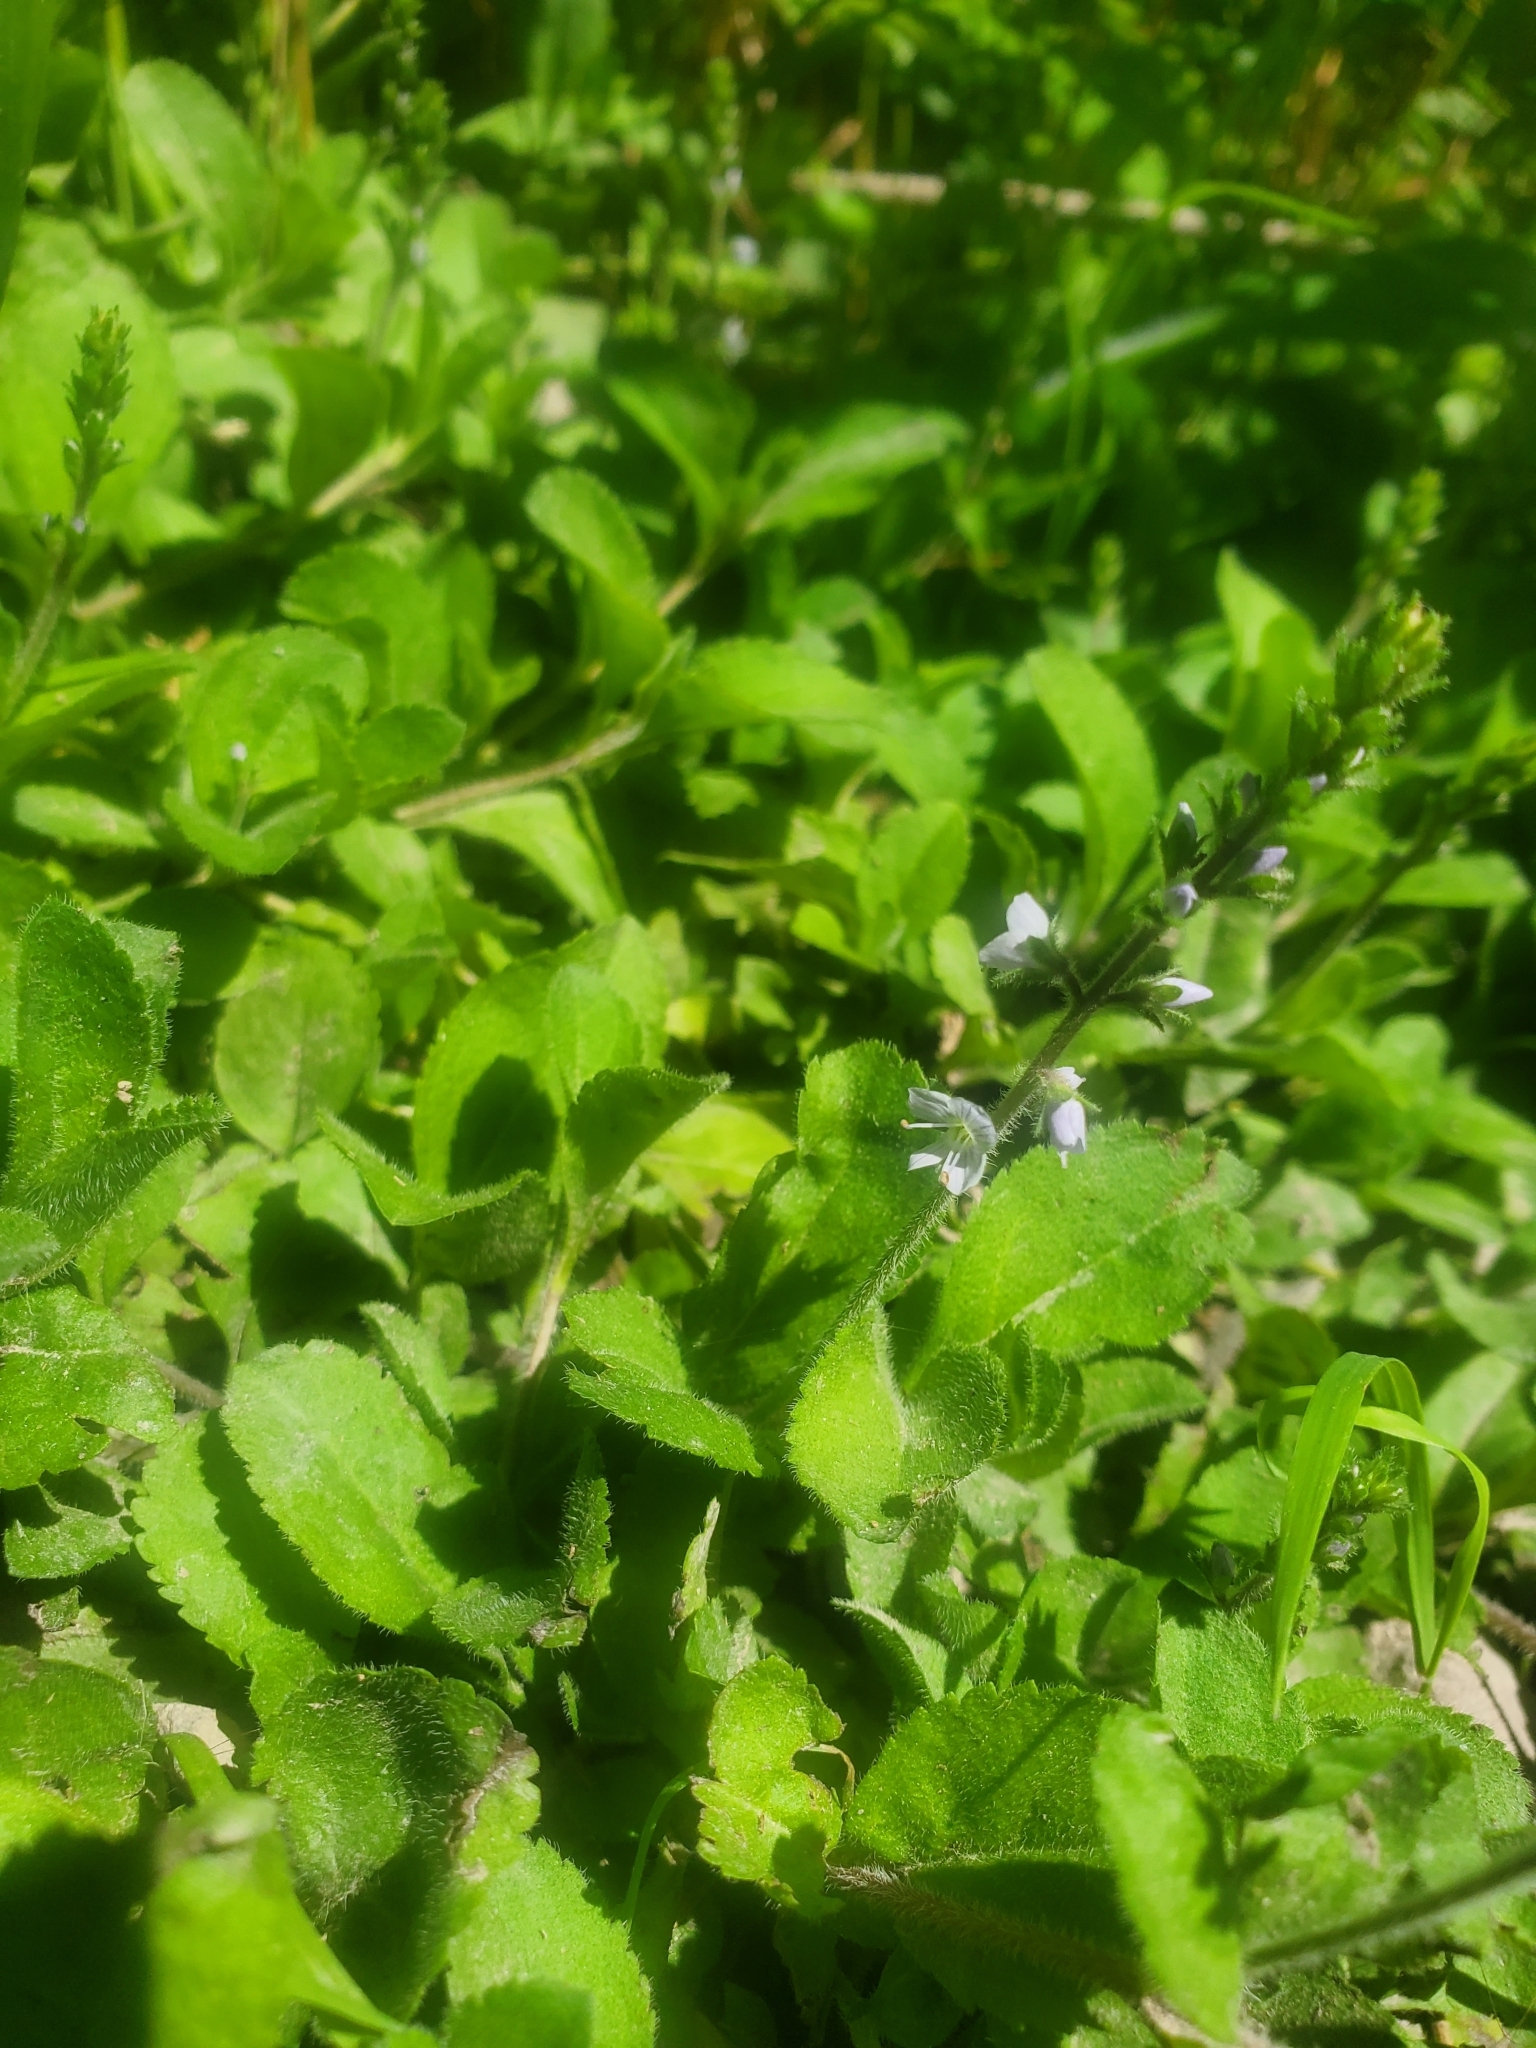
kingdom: Plantae
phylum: Tracheophyta
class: Magnoliopsida
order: Lamiales
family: Plantaginaceae
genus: Veronica
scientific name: Veronica officinalis
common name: Common speedwell
